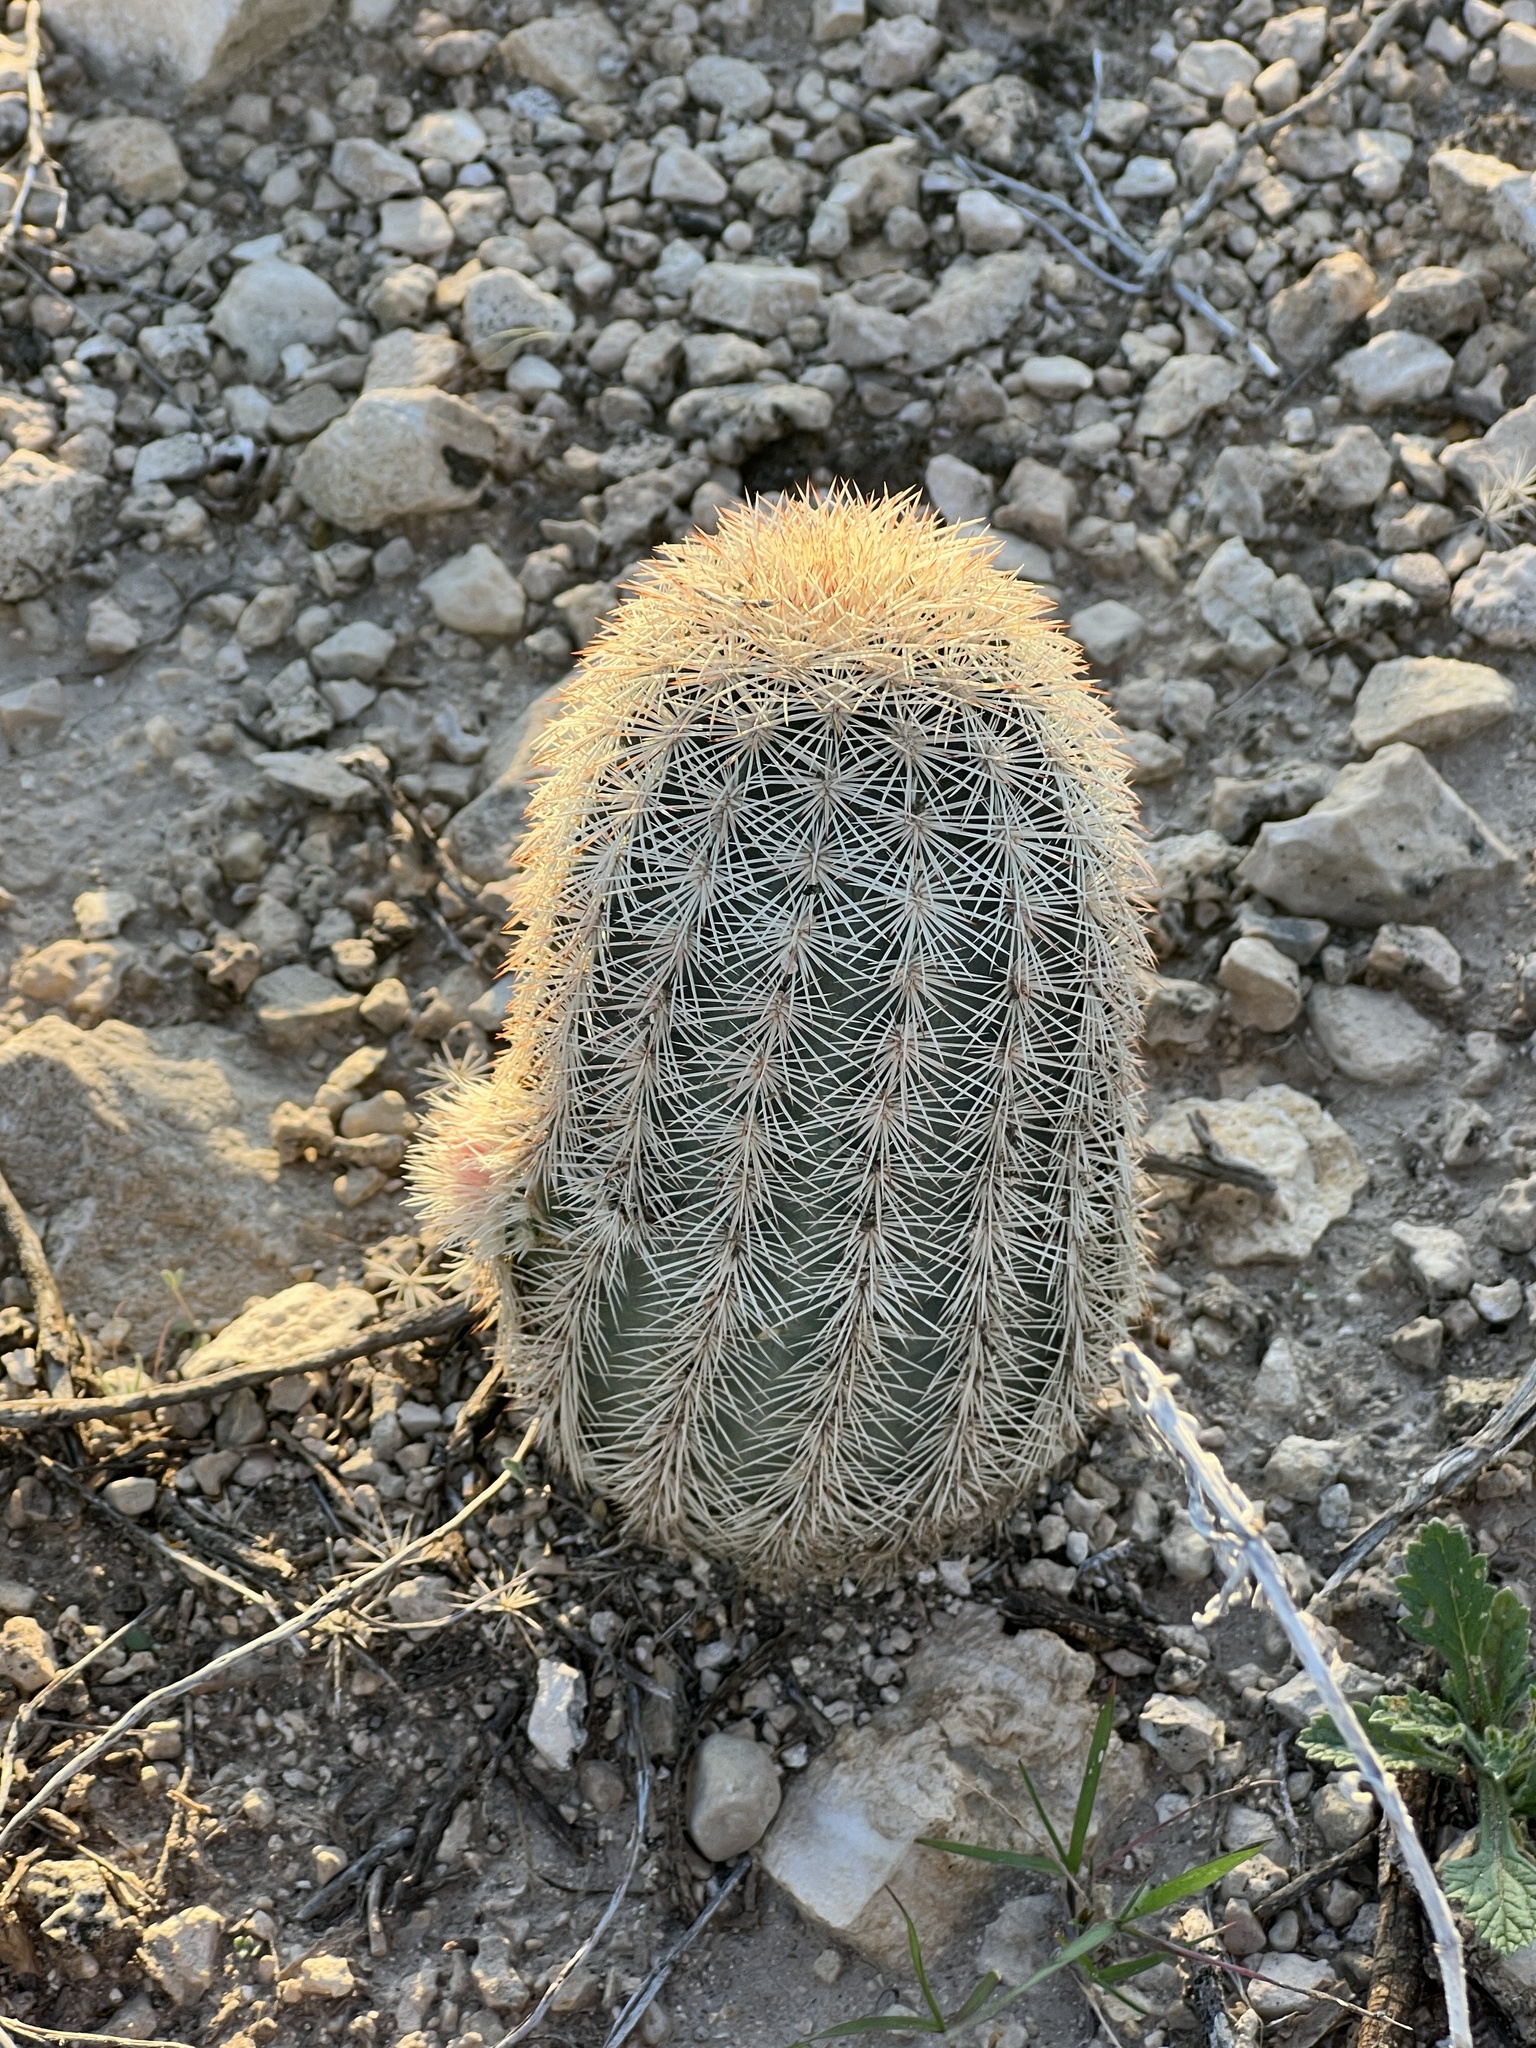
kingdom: Plantae
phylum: Tracheophyta
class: Magnoliopsida
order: Caryophyllales
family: Cactaceae
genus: Echinocereus
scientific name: Echinocereus dasyacanthus
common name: Spiny hedgehog cactus
